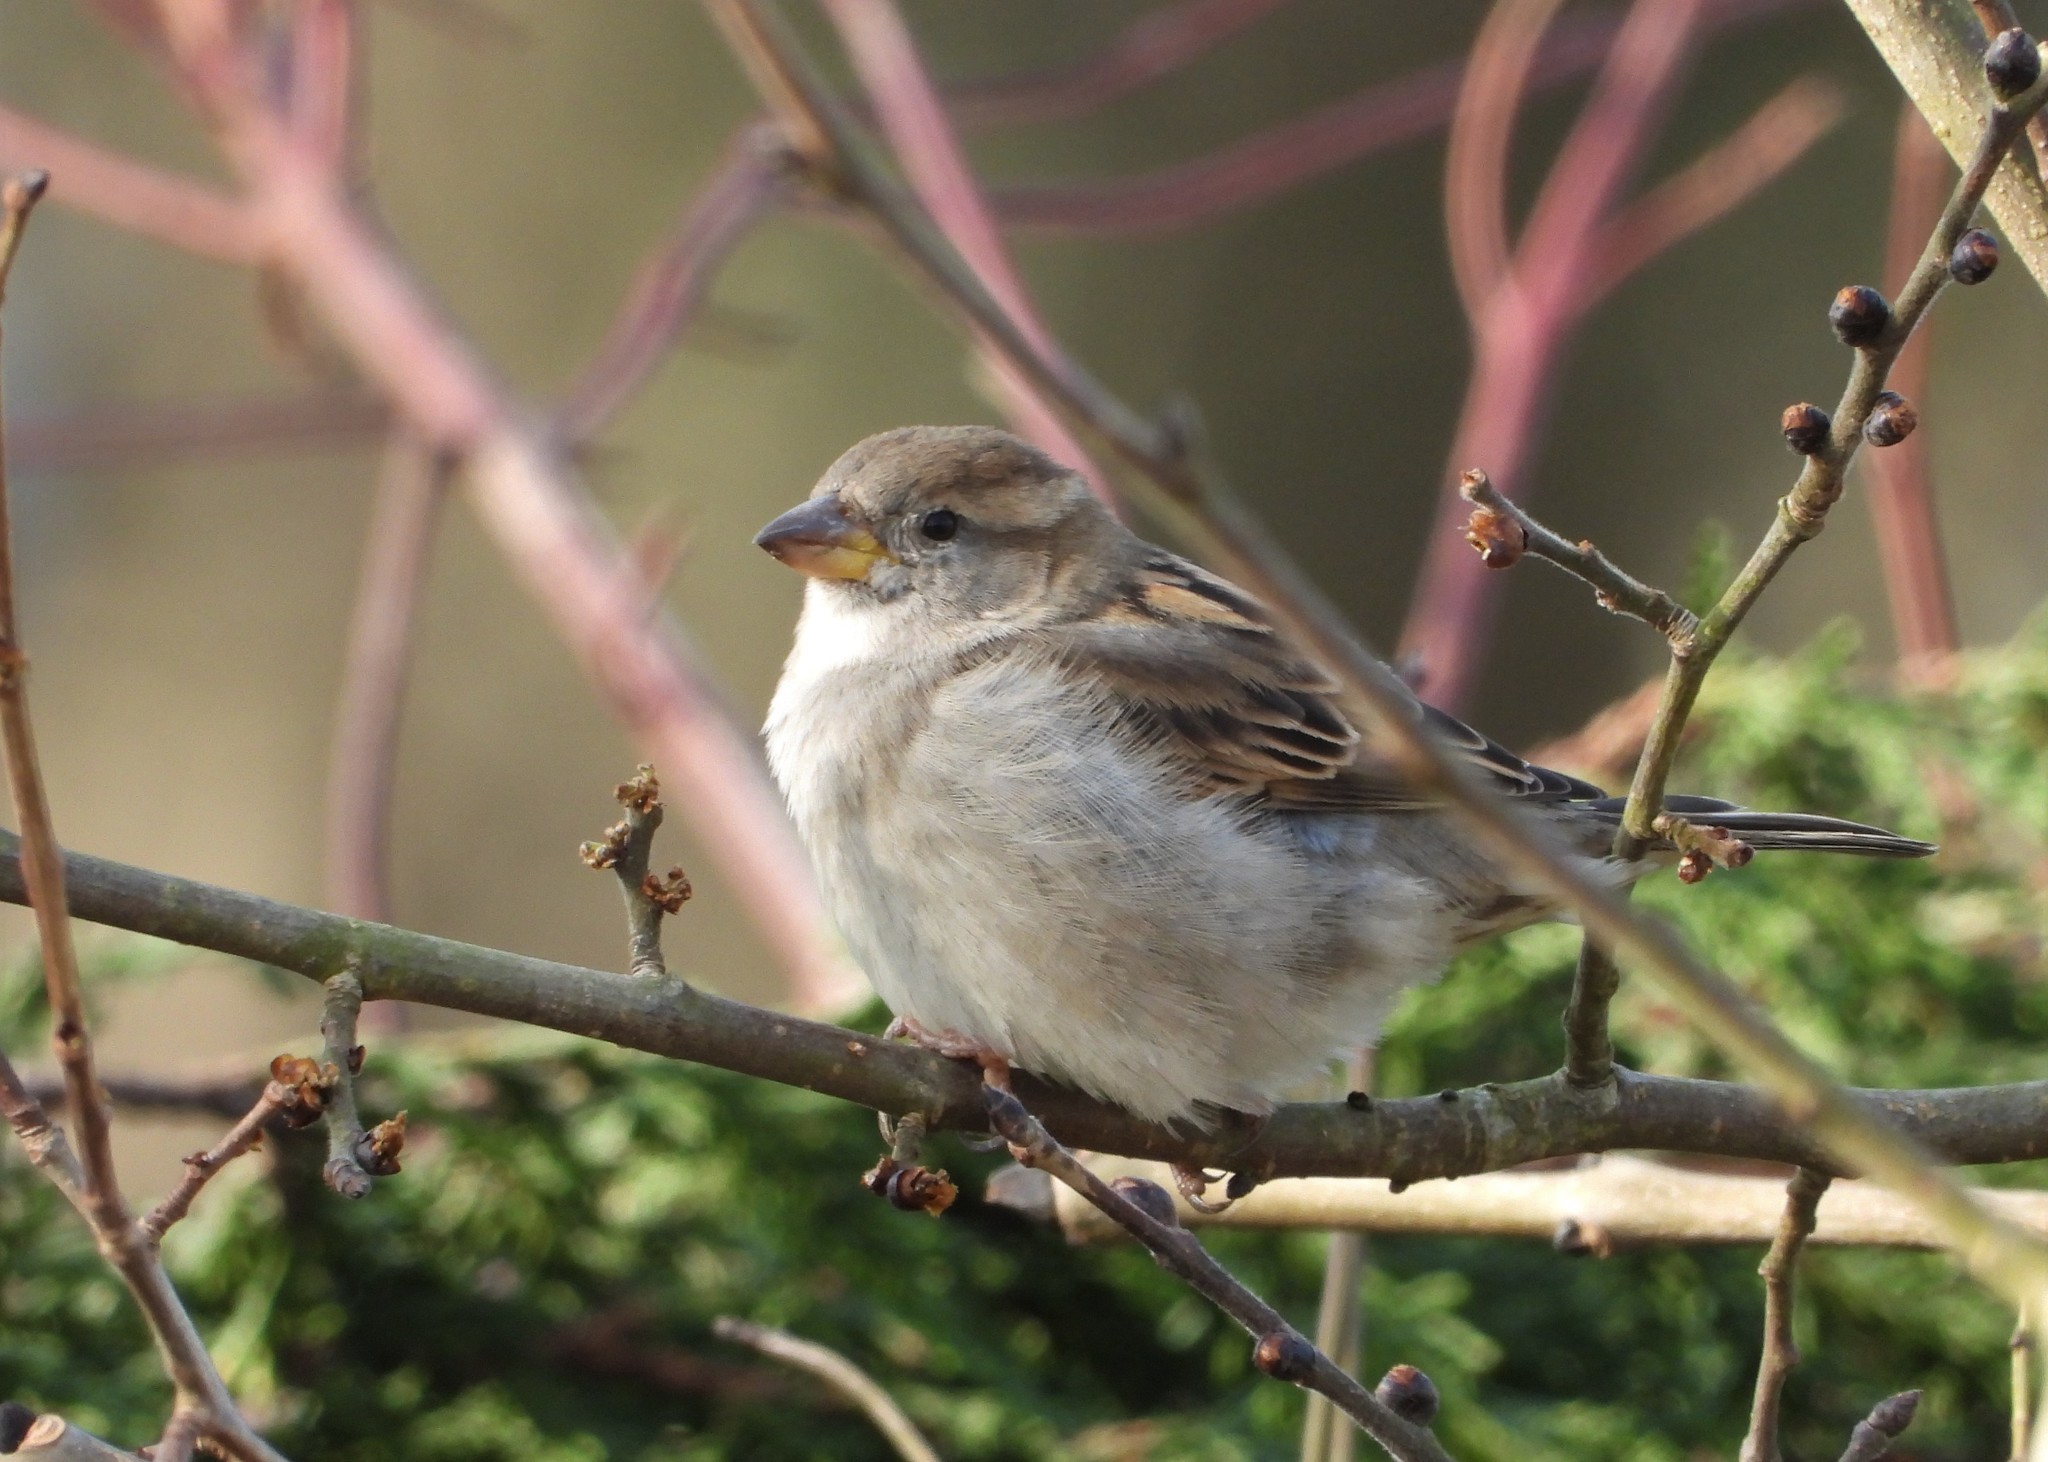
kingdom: Animalia
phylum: Chordata
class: Aves
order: Passeriformes
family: Passeridae
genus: Passer
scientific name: Passer domesticus
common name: House sparrow
